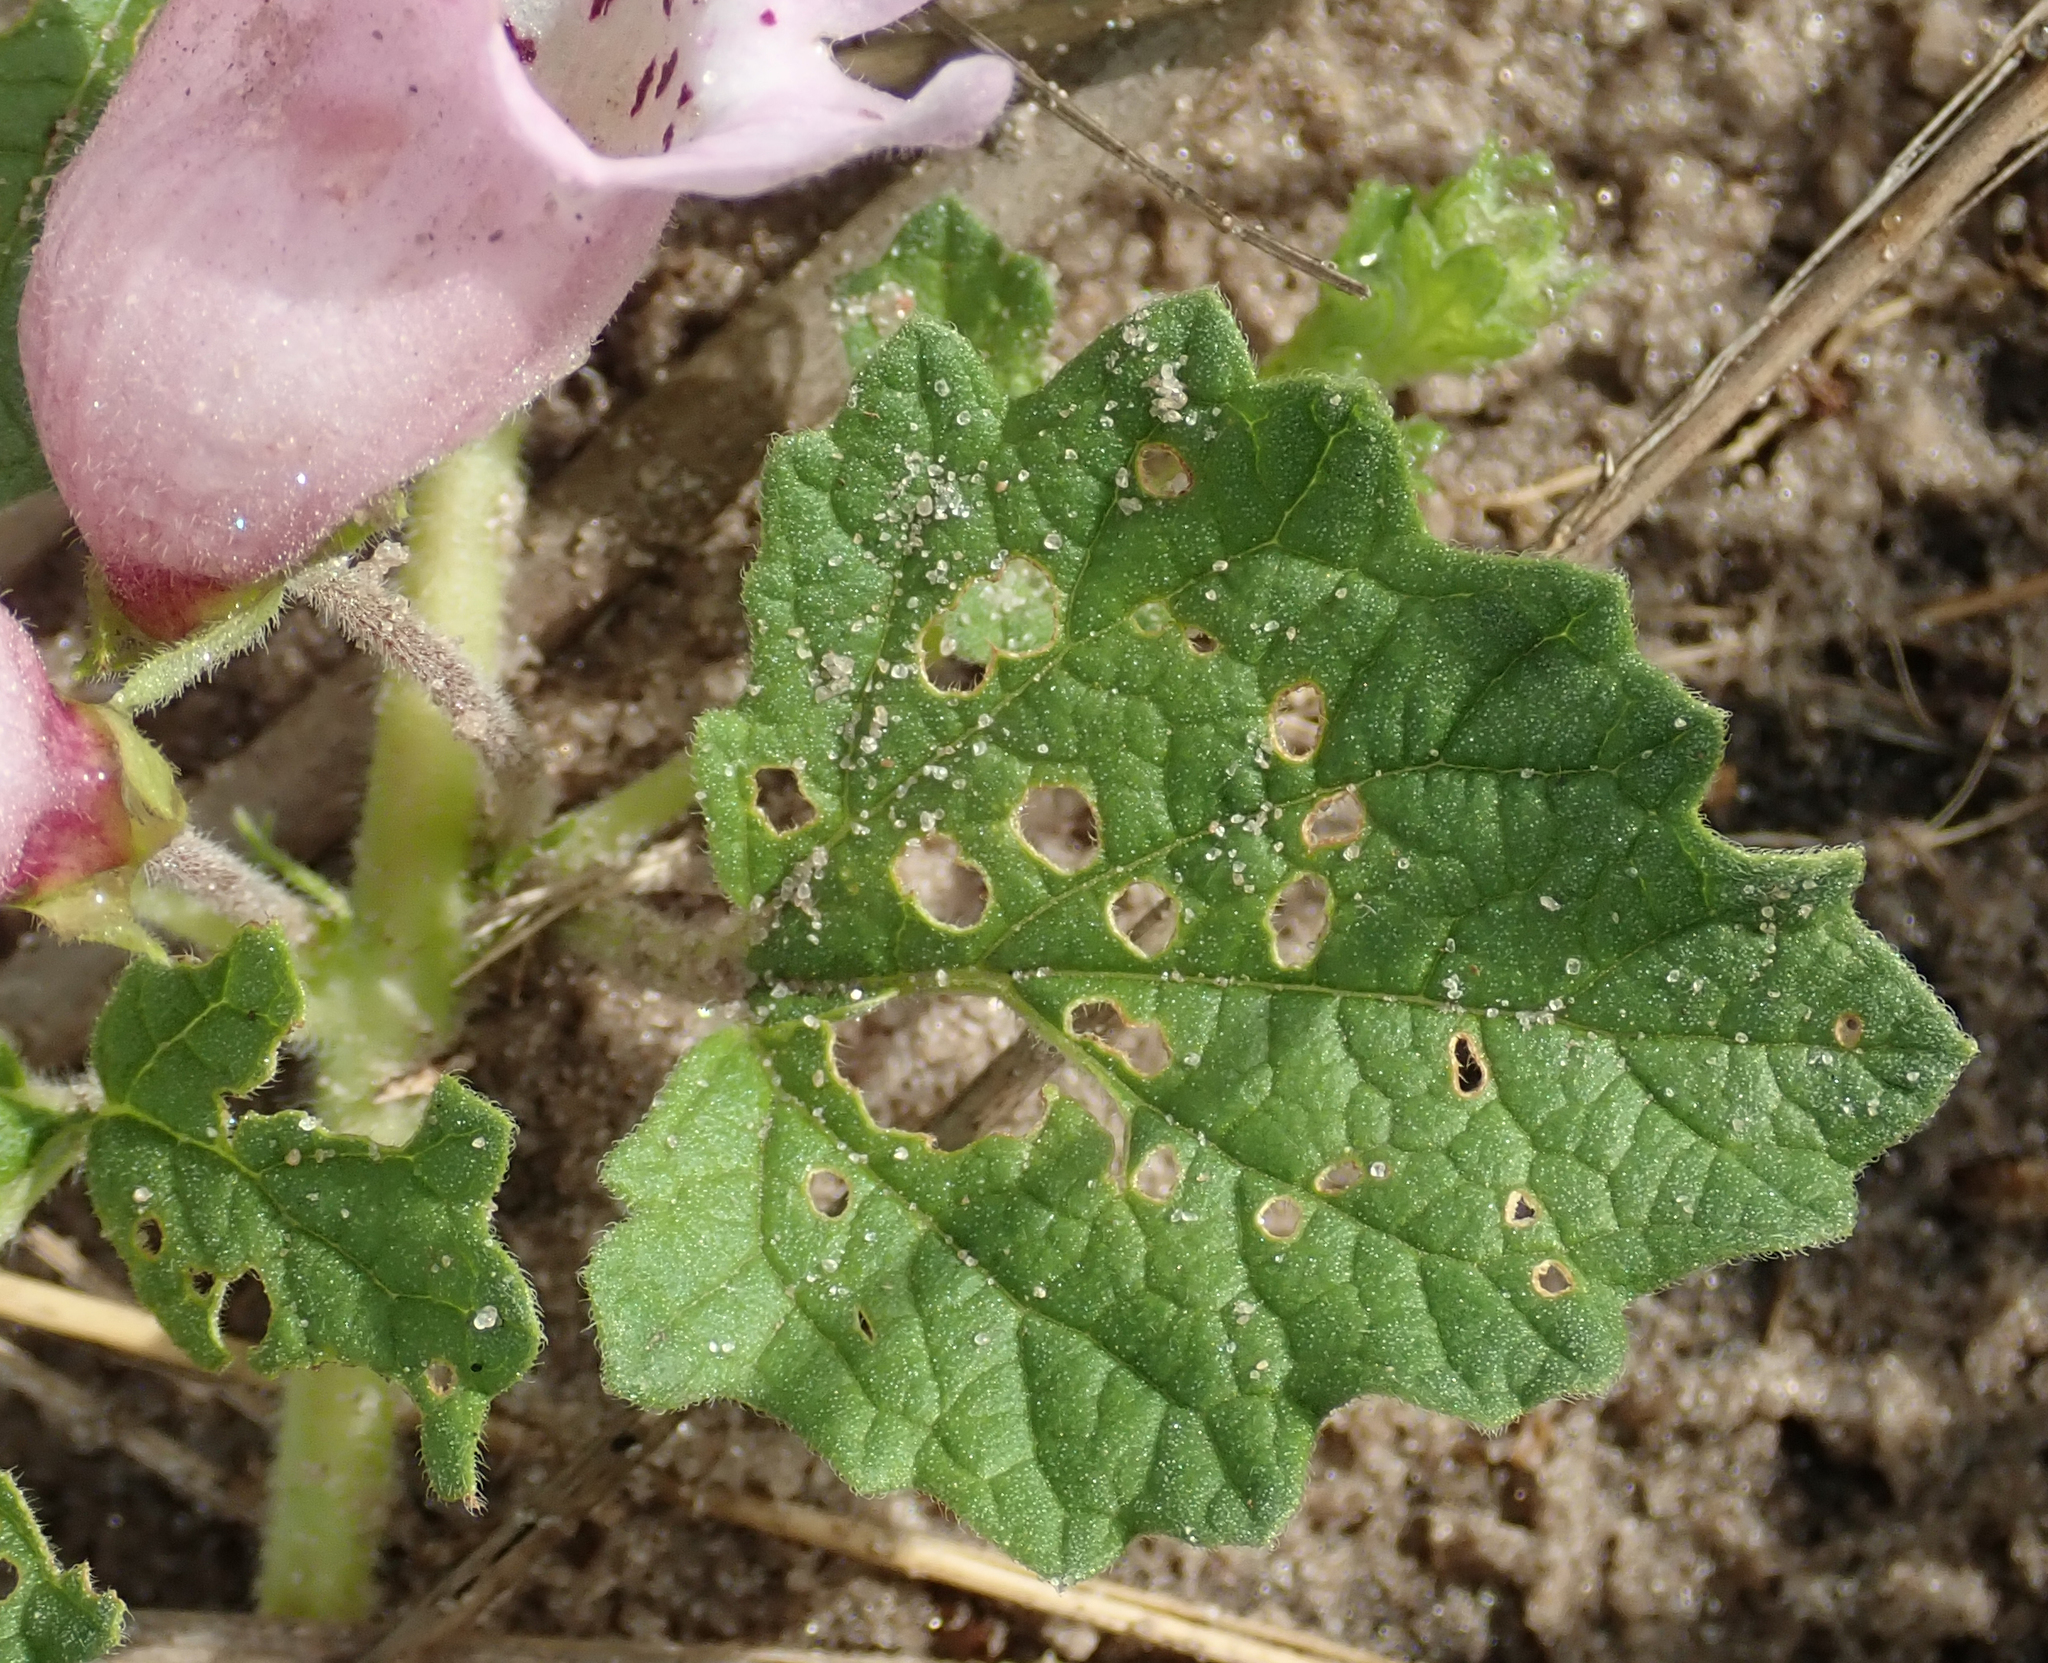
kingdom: Plantae
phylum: Tracheophyta
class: Magnoliopsida
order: Lamiales
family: Pedaliaceae
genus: Dicerocaryum
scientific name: Dicerocaryum eriocarpum
